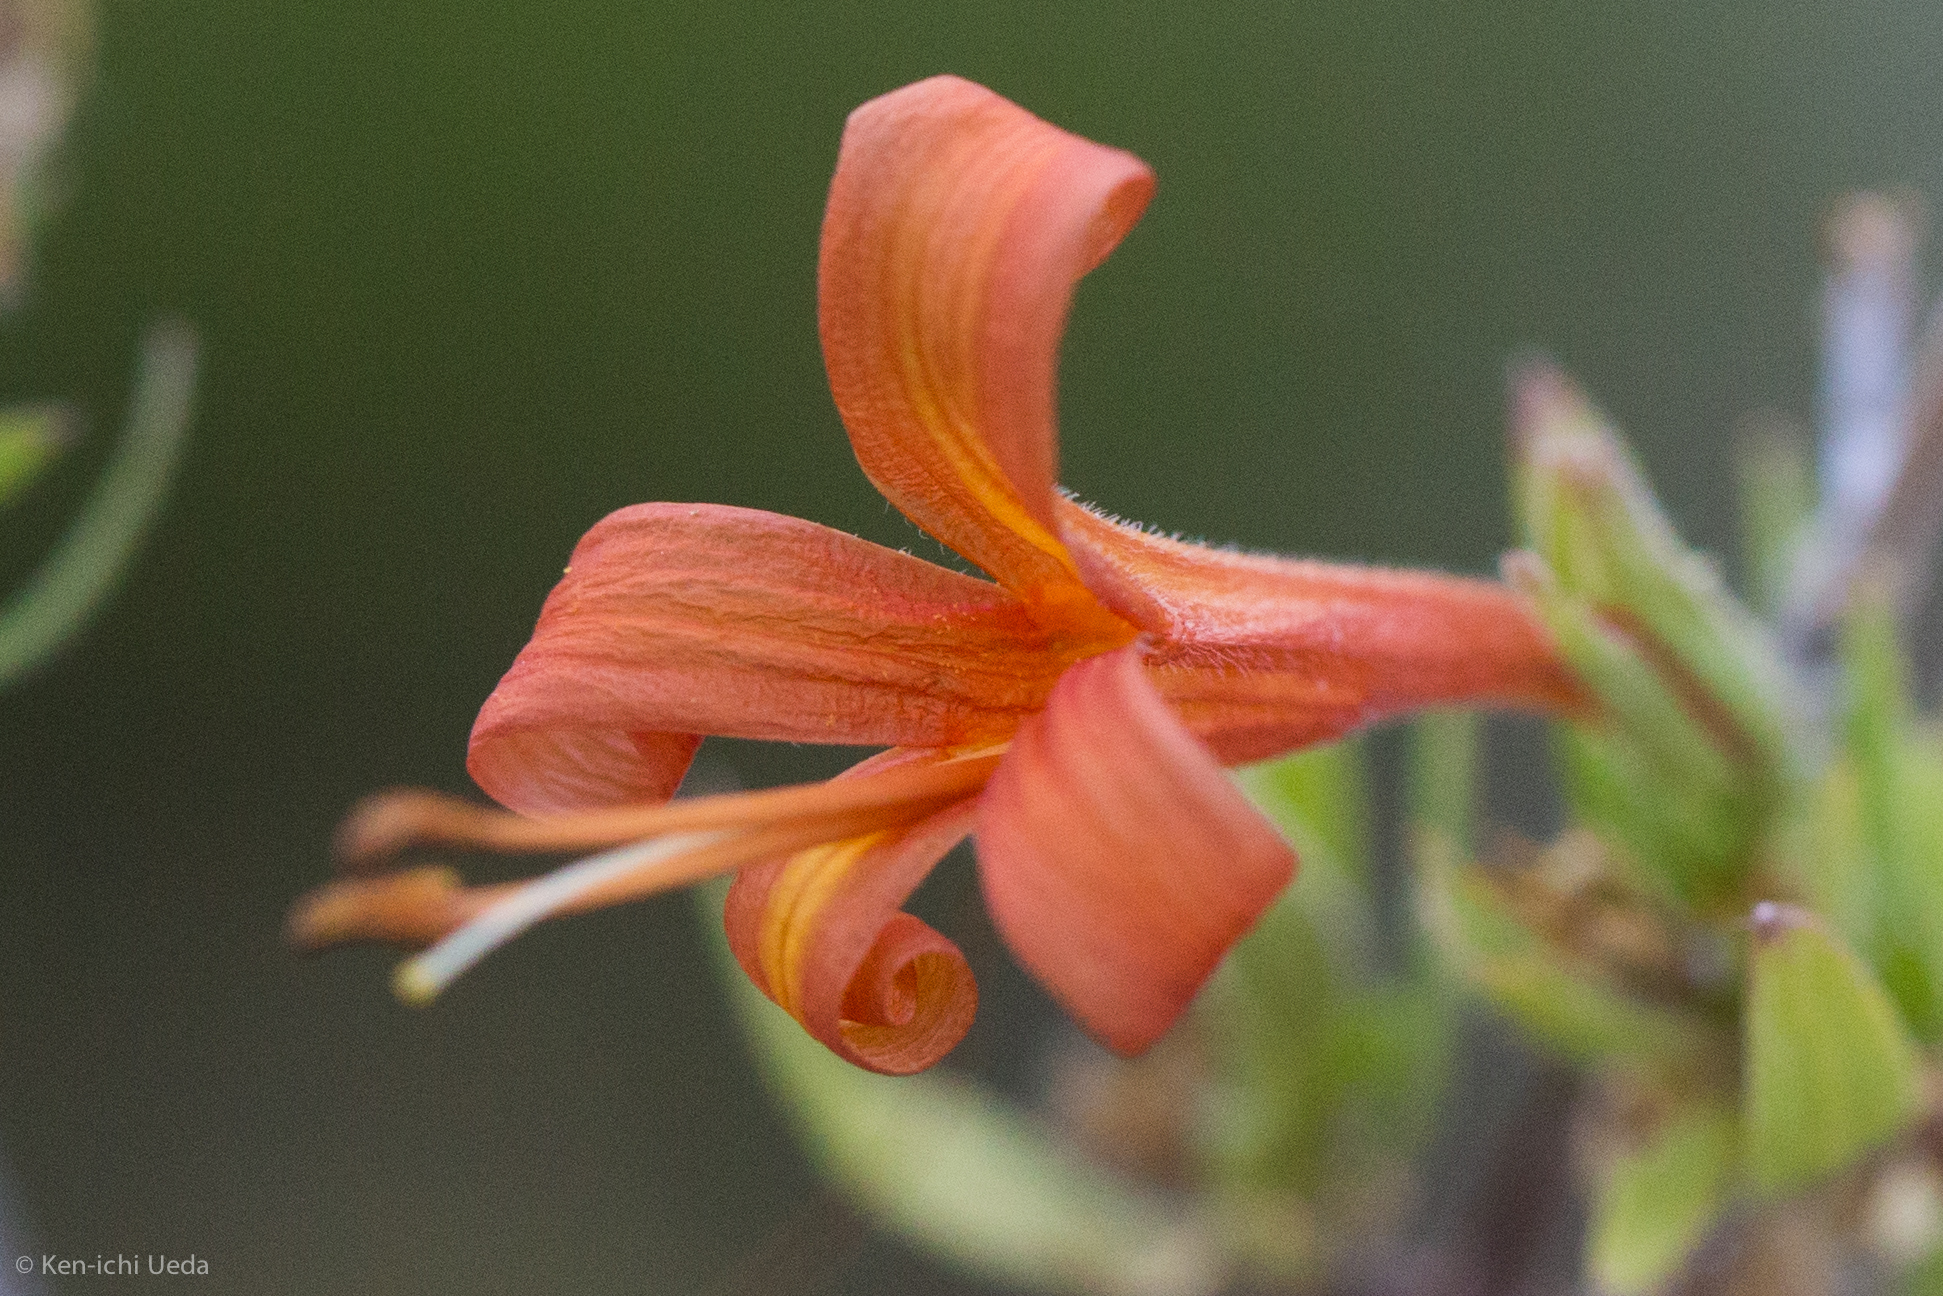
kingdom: Plantae
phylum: Tracheophyta
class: Magnoliopsida
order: Lamiales
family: Acanthaceae
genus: Anisacanthus
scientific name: Anisacanthus thurberi
